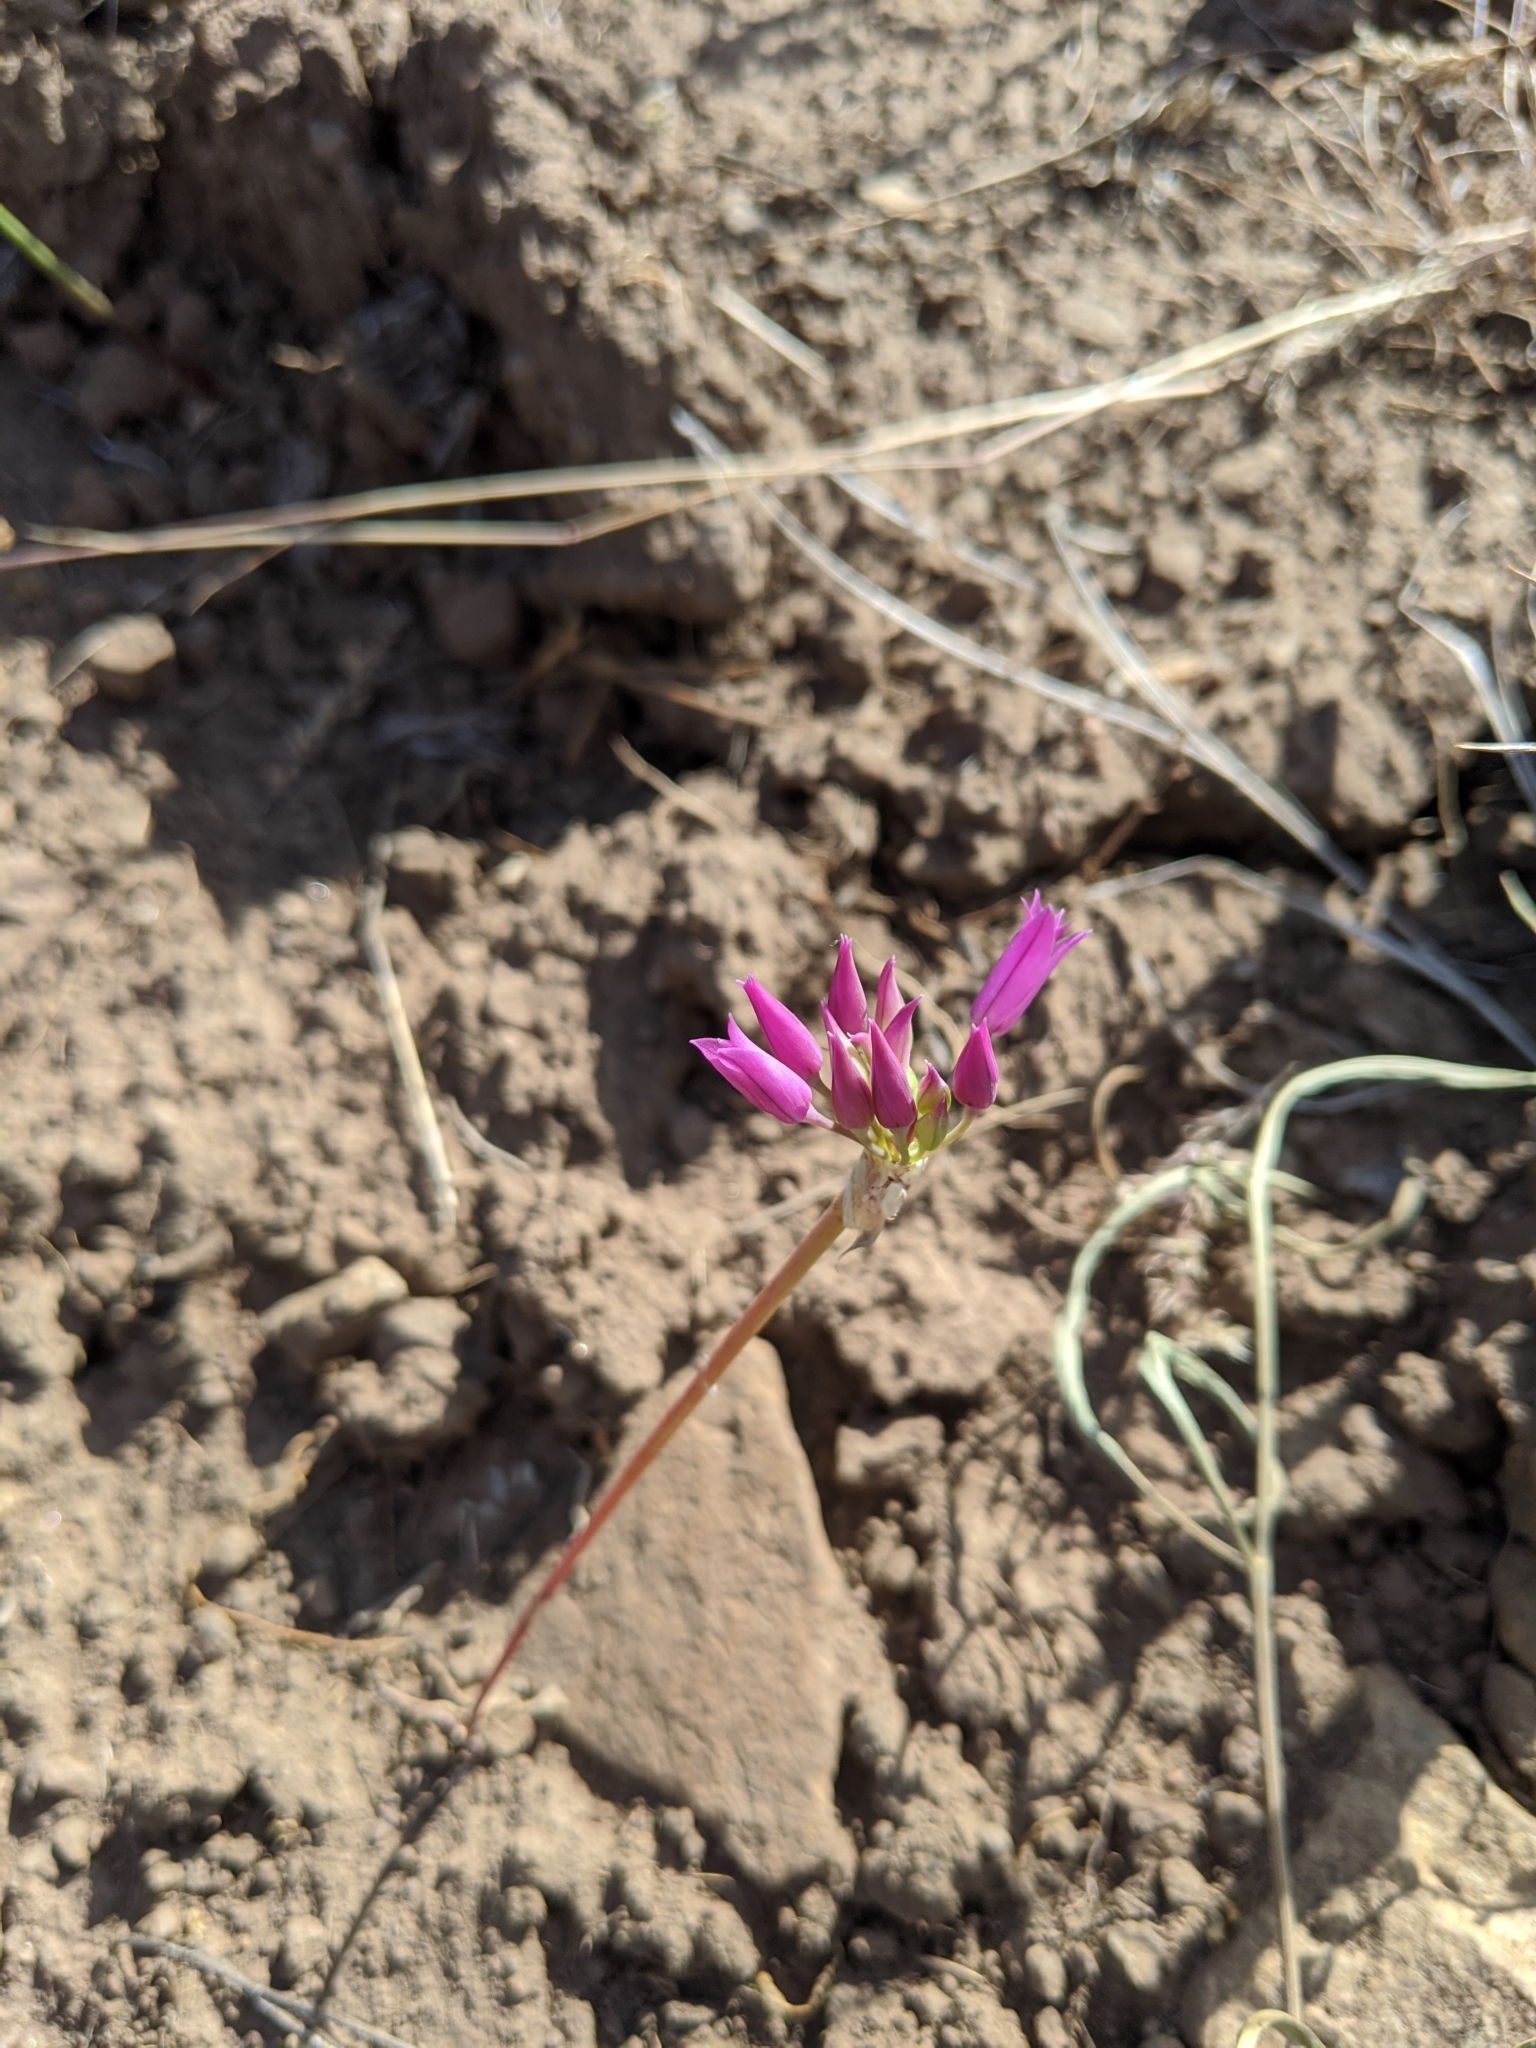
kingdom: Plantae
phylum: Tracheophyta
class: Liliopsida
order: Asparagales
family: Amaryllidaceae
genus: Allium
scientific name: Allium acuminatum
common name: Hooker's onion
